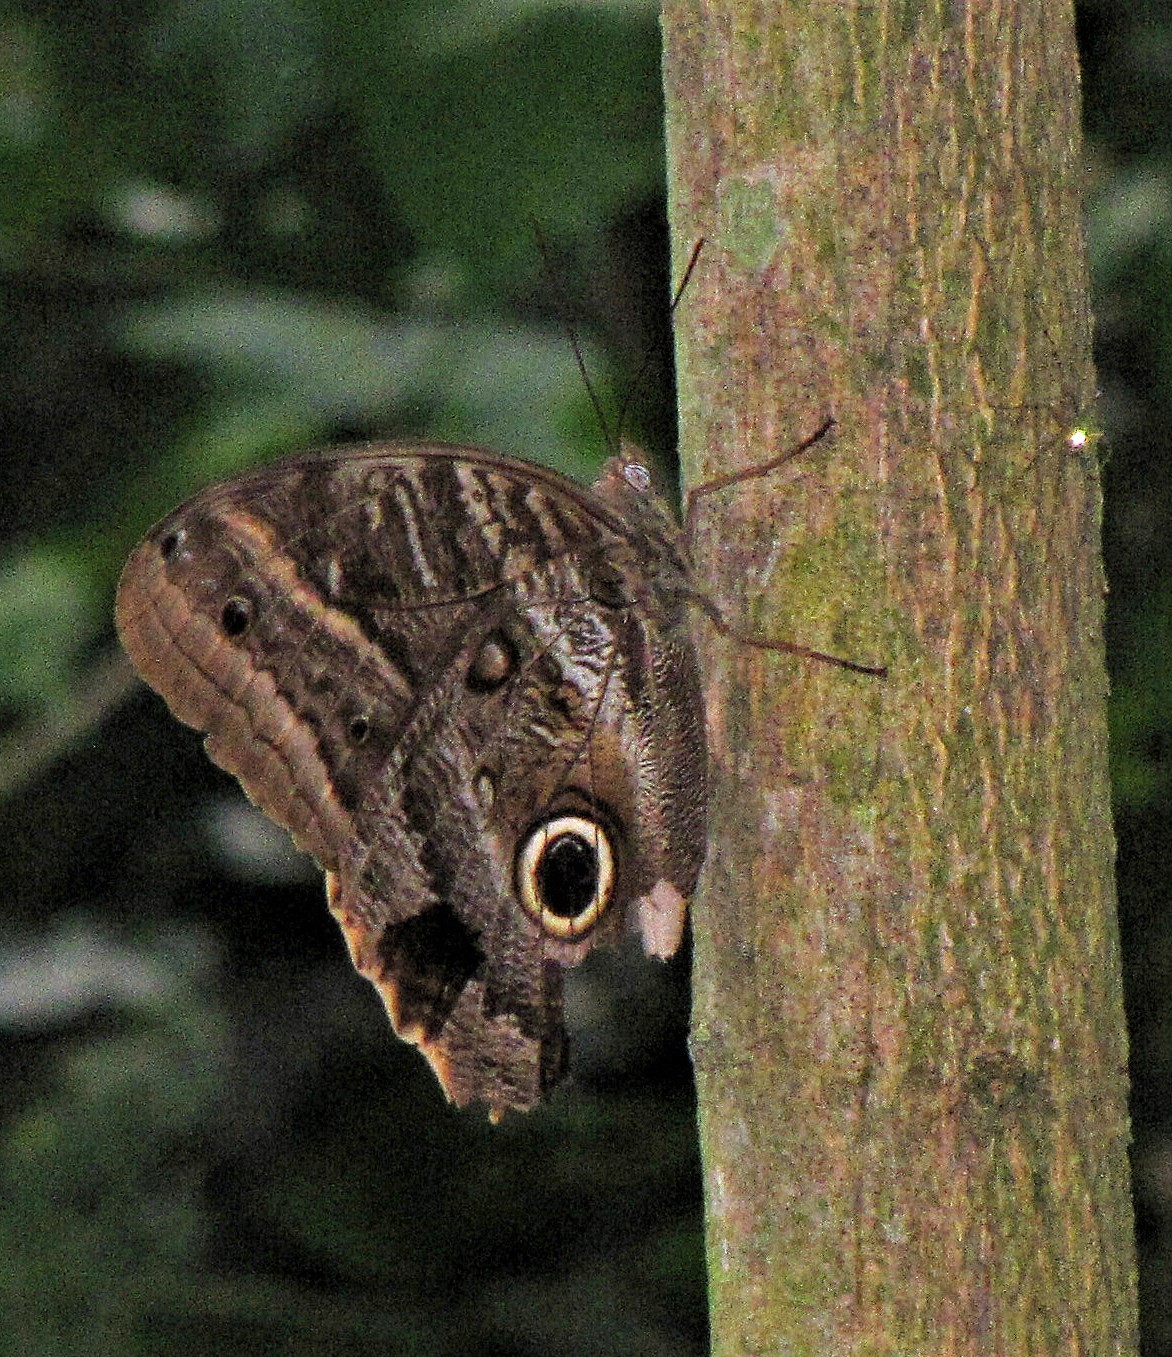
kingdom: Animalia
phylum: Arthropoda
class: Insecta
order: Lepidoptera
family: Nymphalidae
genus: Caligo
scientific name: Caligo illioneus
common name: Dusky owl-butterfly
